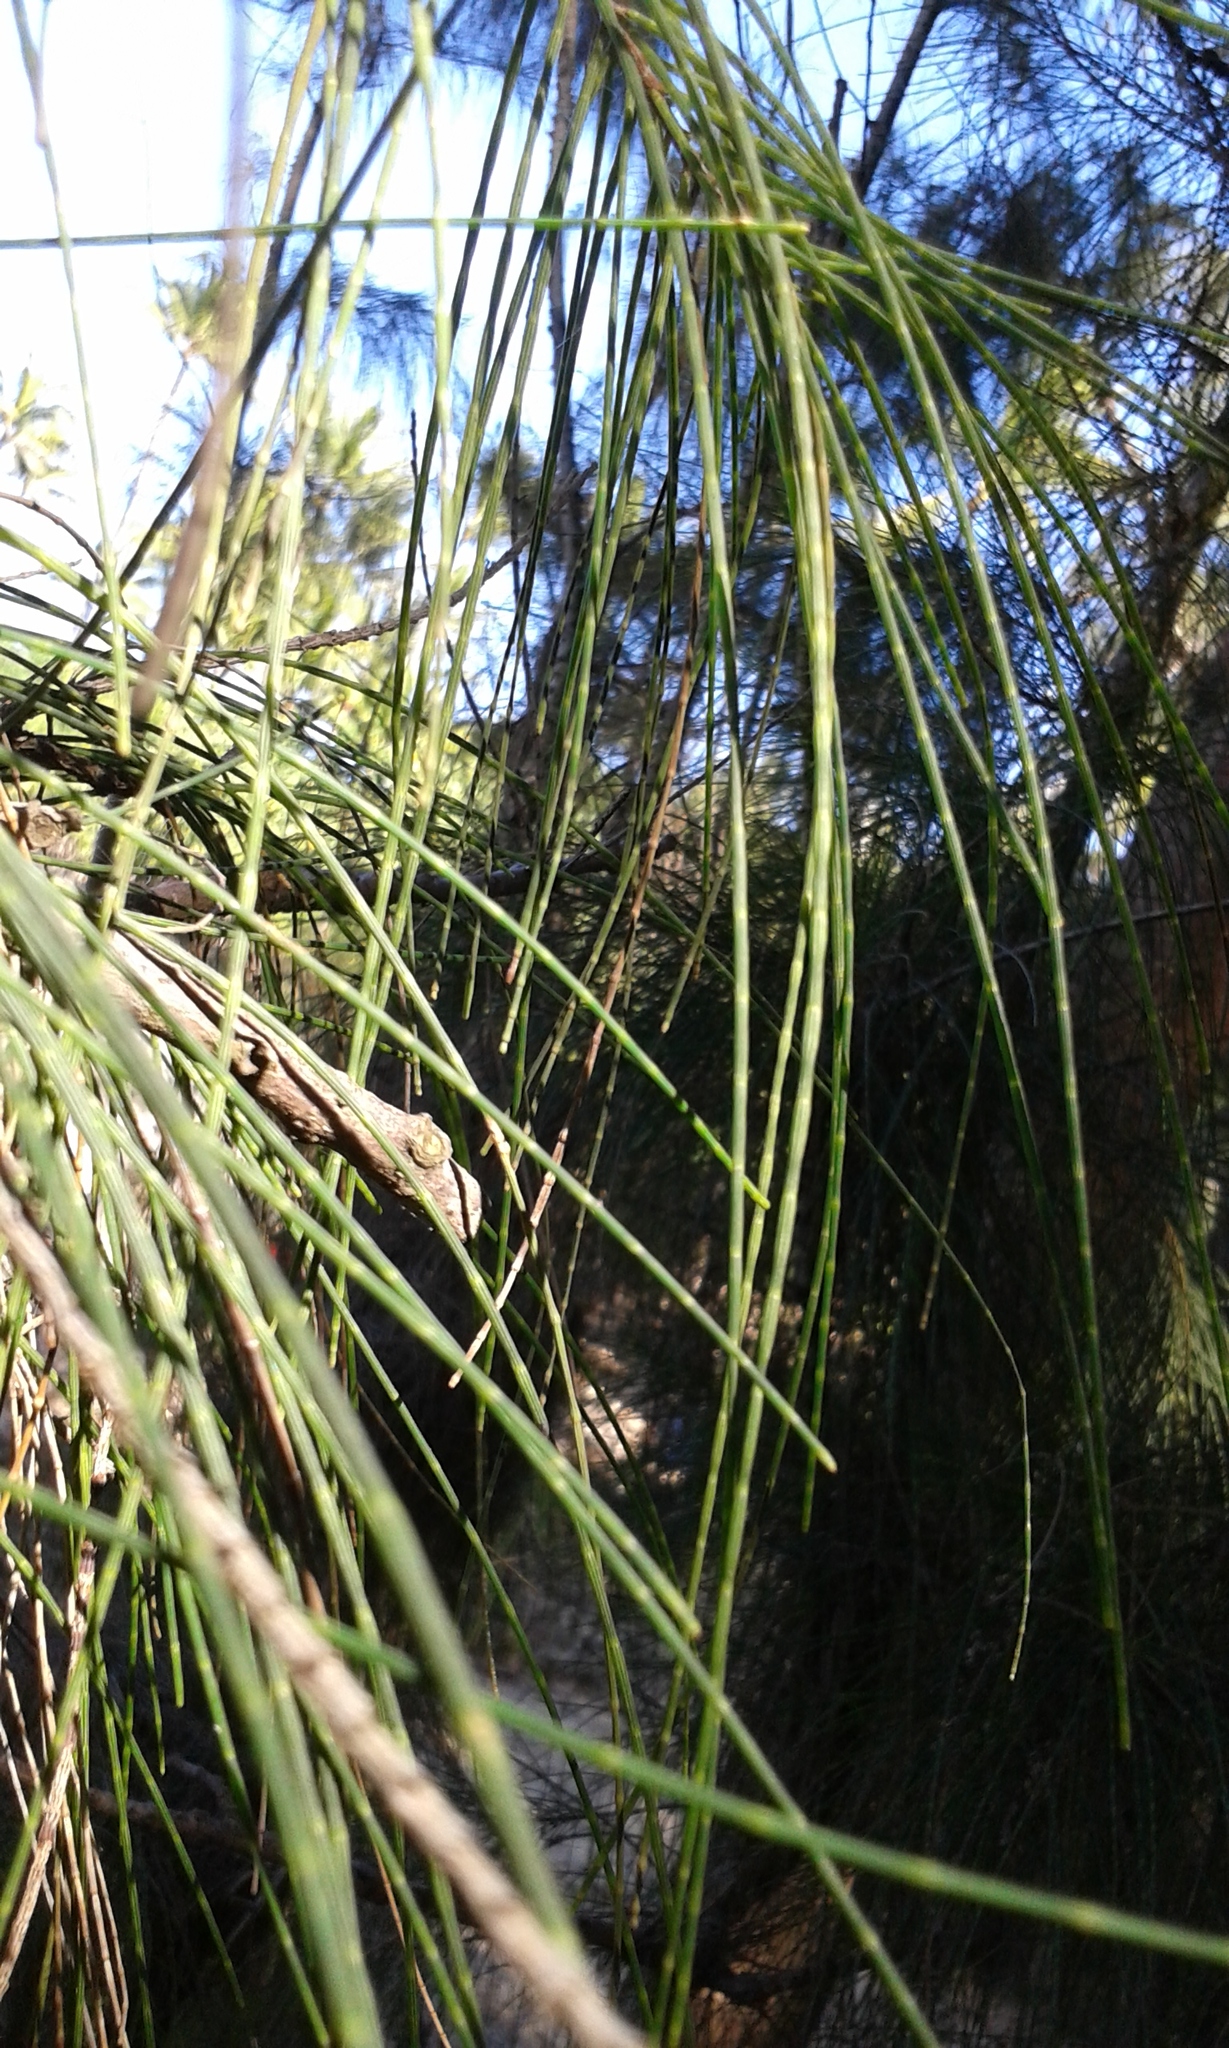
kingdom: Plantae
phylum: Tracheophyta
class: Magnoliopsida
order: Fagales
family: Casuarinaceae
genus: Casuarina
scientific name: Casuarina equisetifolia
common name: Beach sheoak
